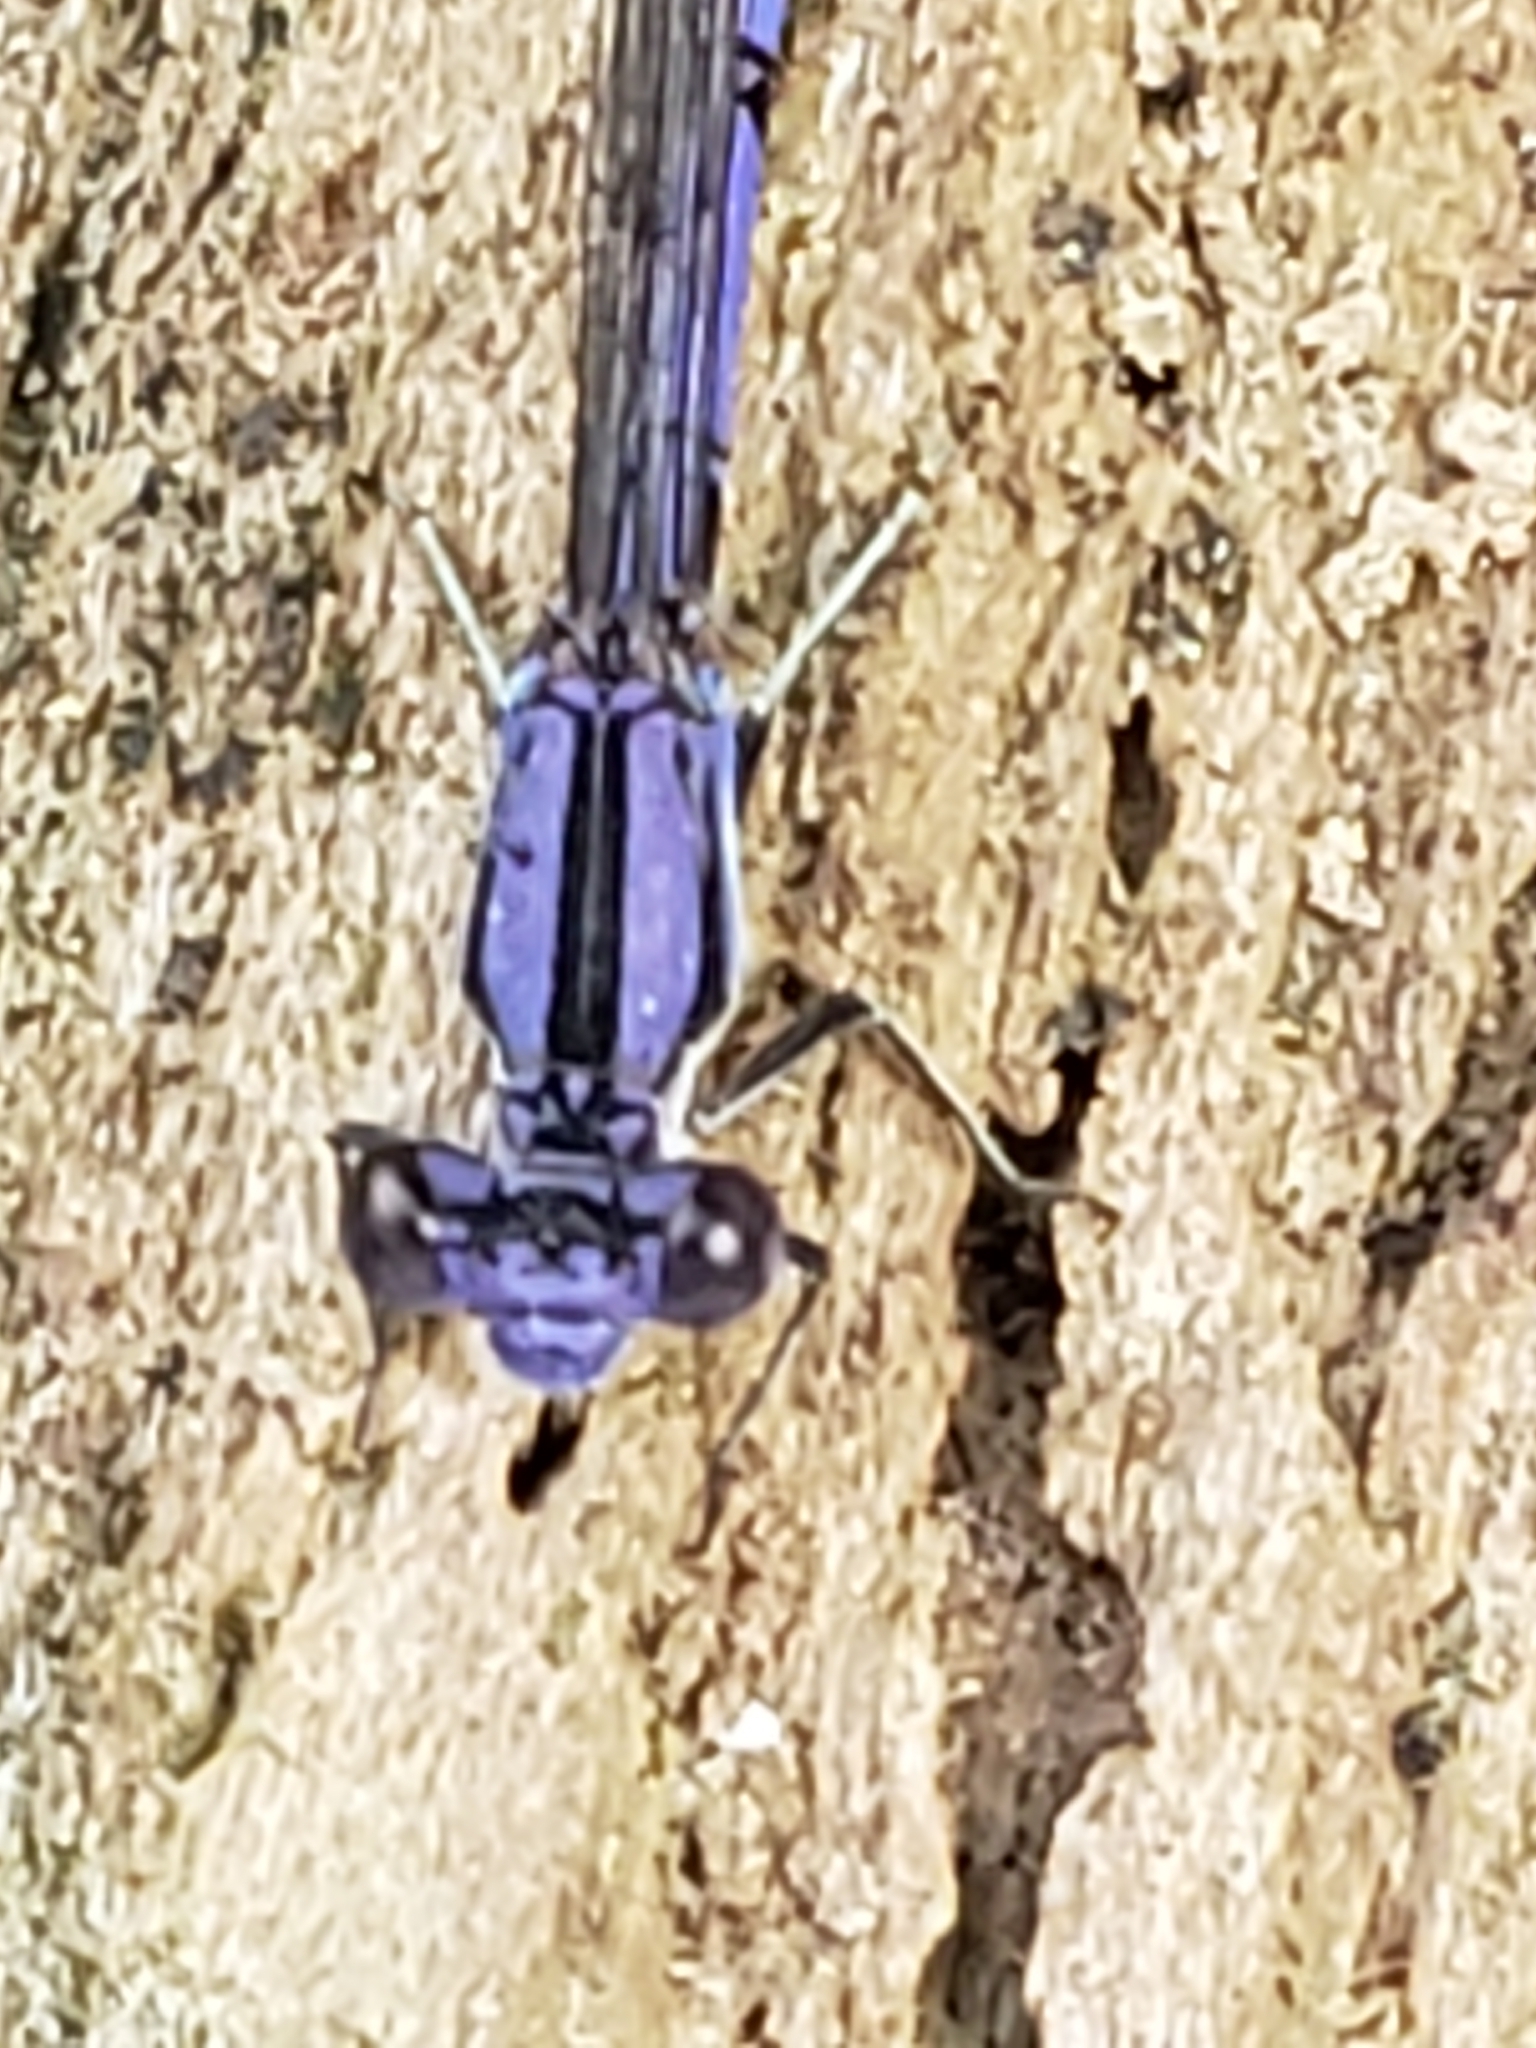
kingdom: Animalia
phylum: Arthropoda
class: Insecta
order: Odonata
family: Coenagrionidae
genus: Argia
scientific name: Argia fumipennis
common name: Variable dancer
